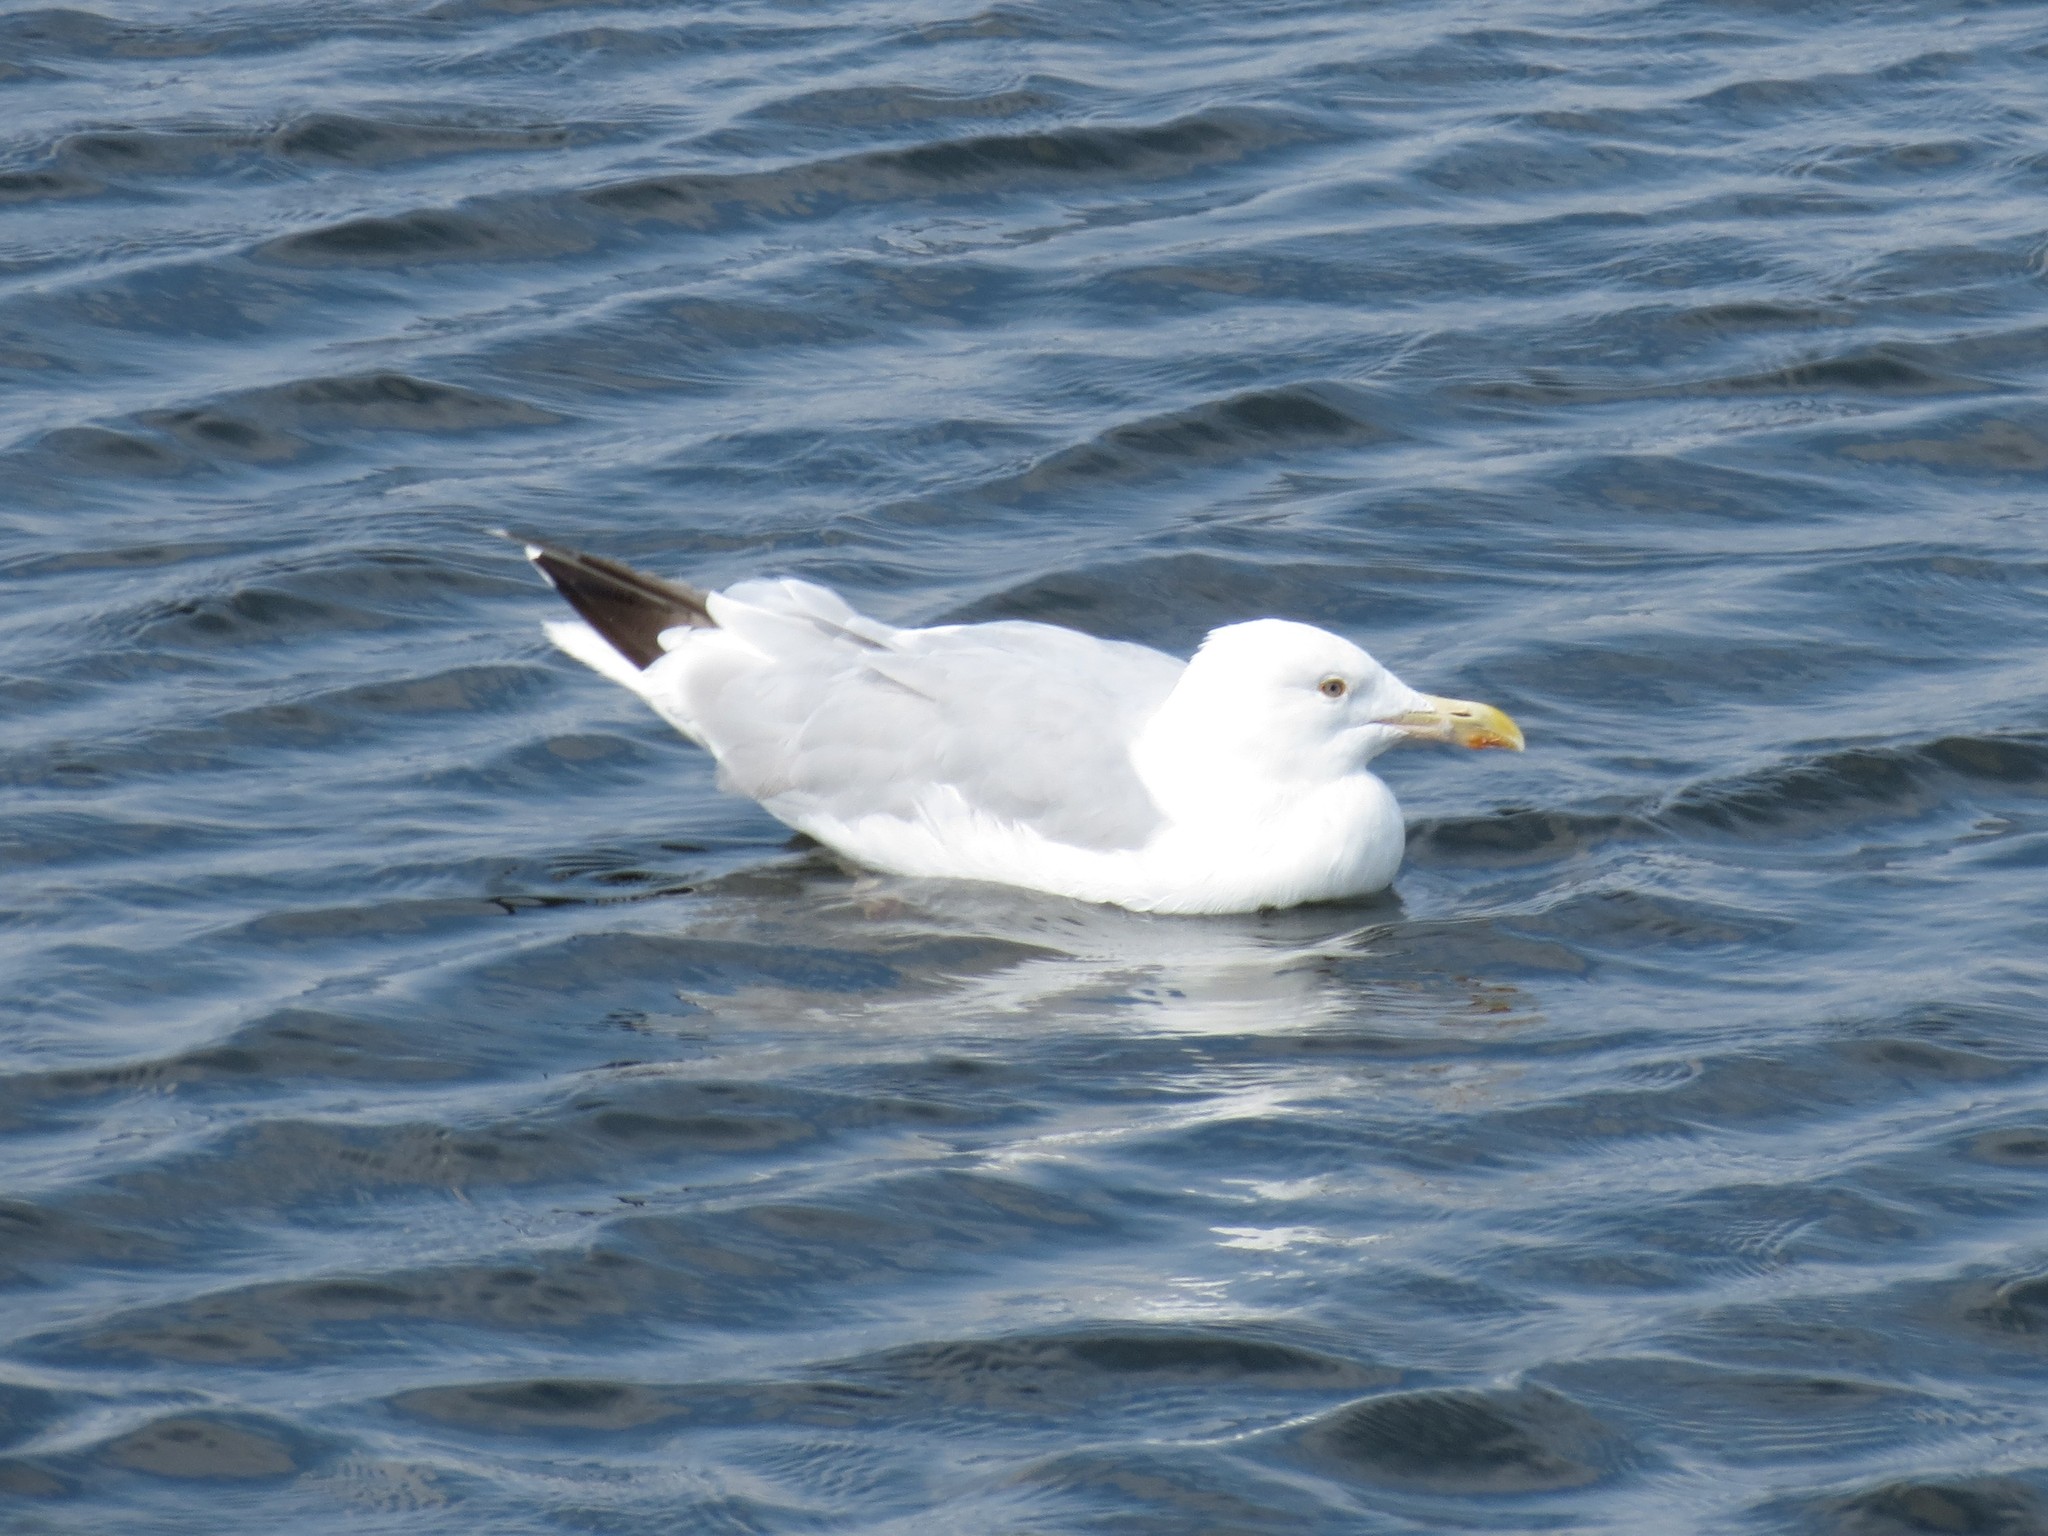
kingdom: Animalia
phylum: Chordata
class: Aves
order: Charadriiformes
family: Laridae
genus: Larus
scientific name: Larus argentatus
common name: Herring gull
